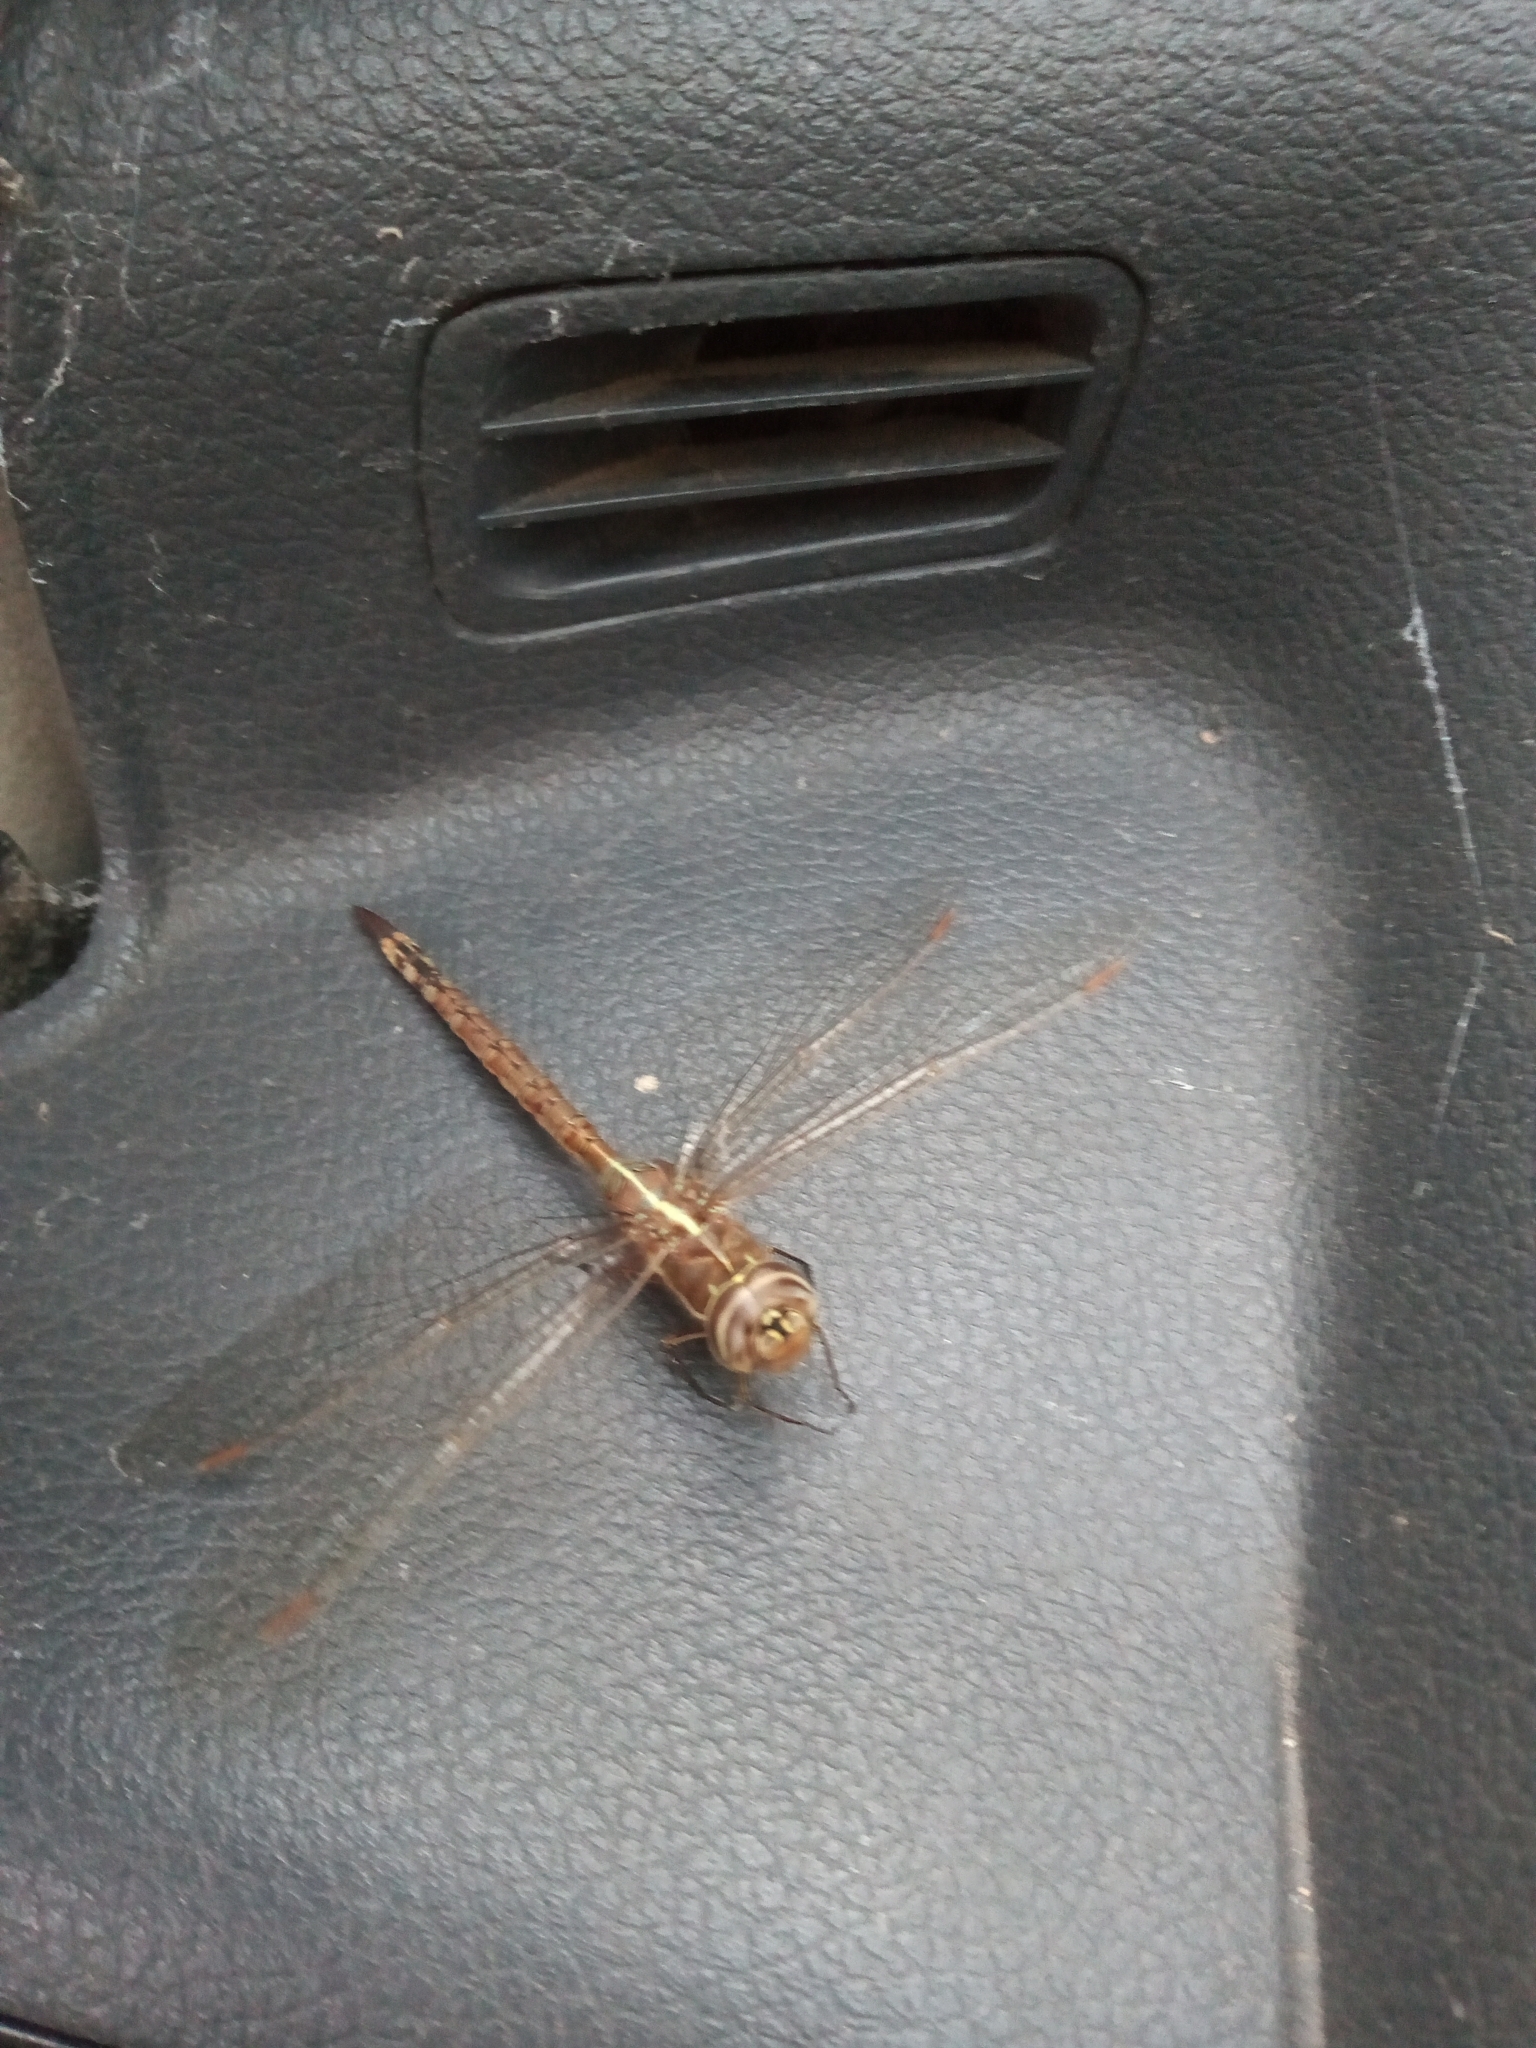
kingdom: Animalia
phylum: Arthropoda
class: Insecta
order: Odonata
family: Aeshnidae
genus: Rhionaeschna
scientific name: Rhionaeschna bonariensis
